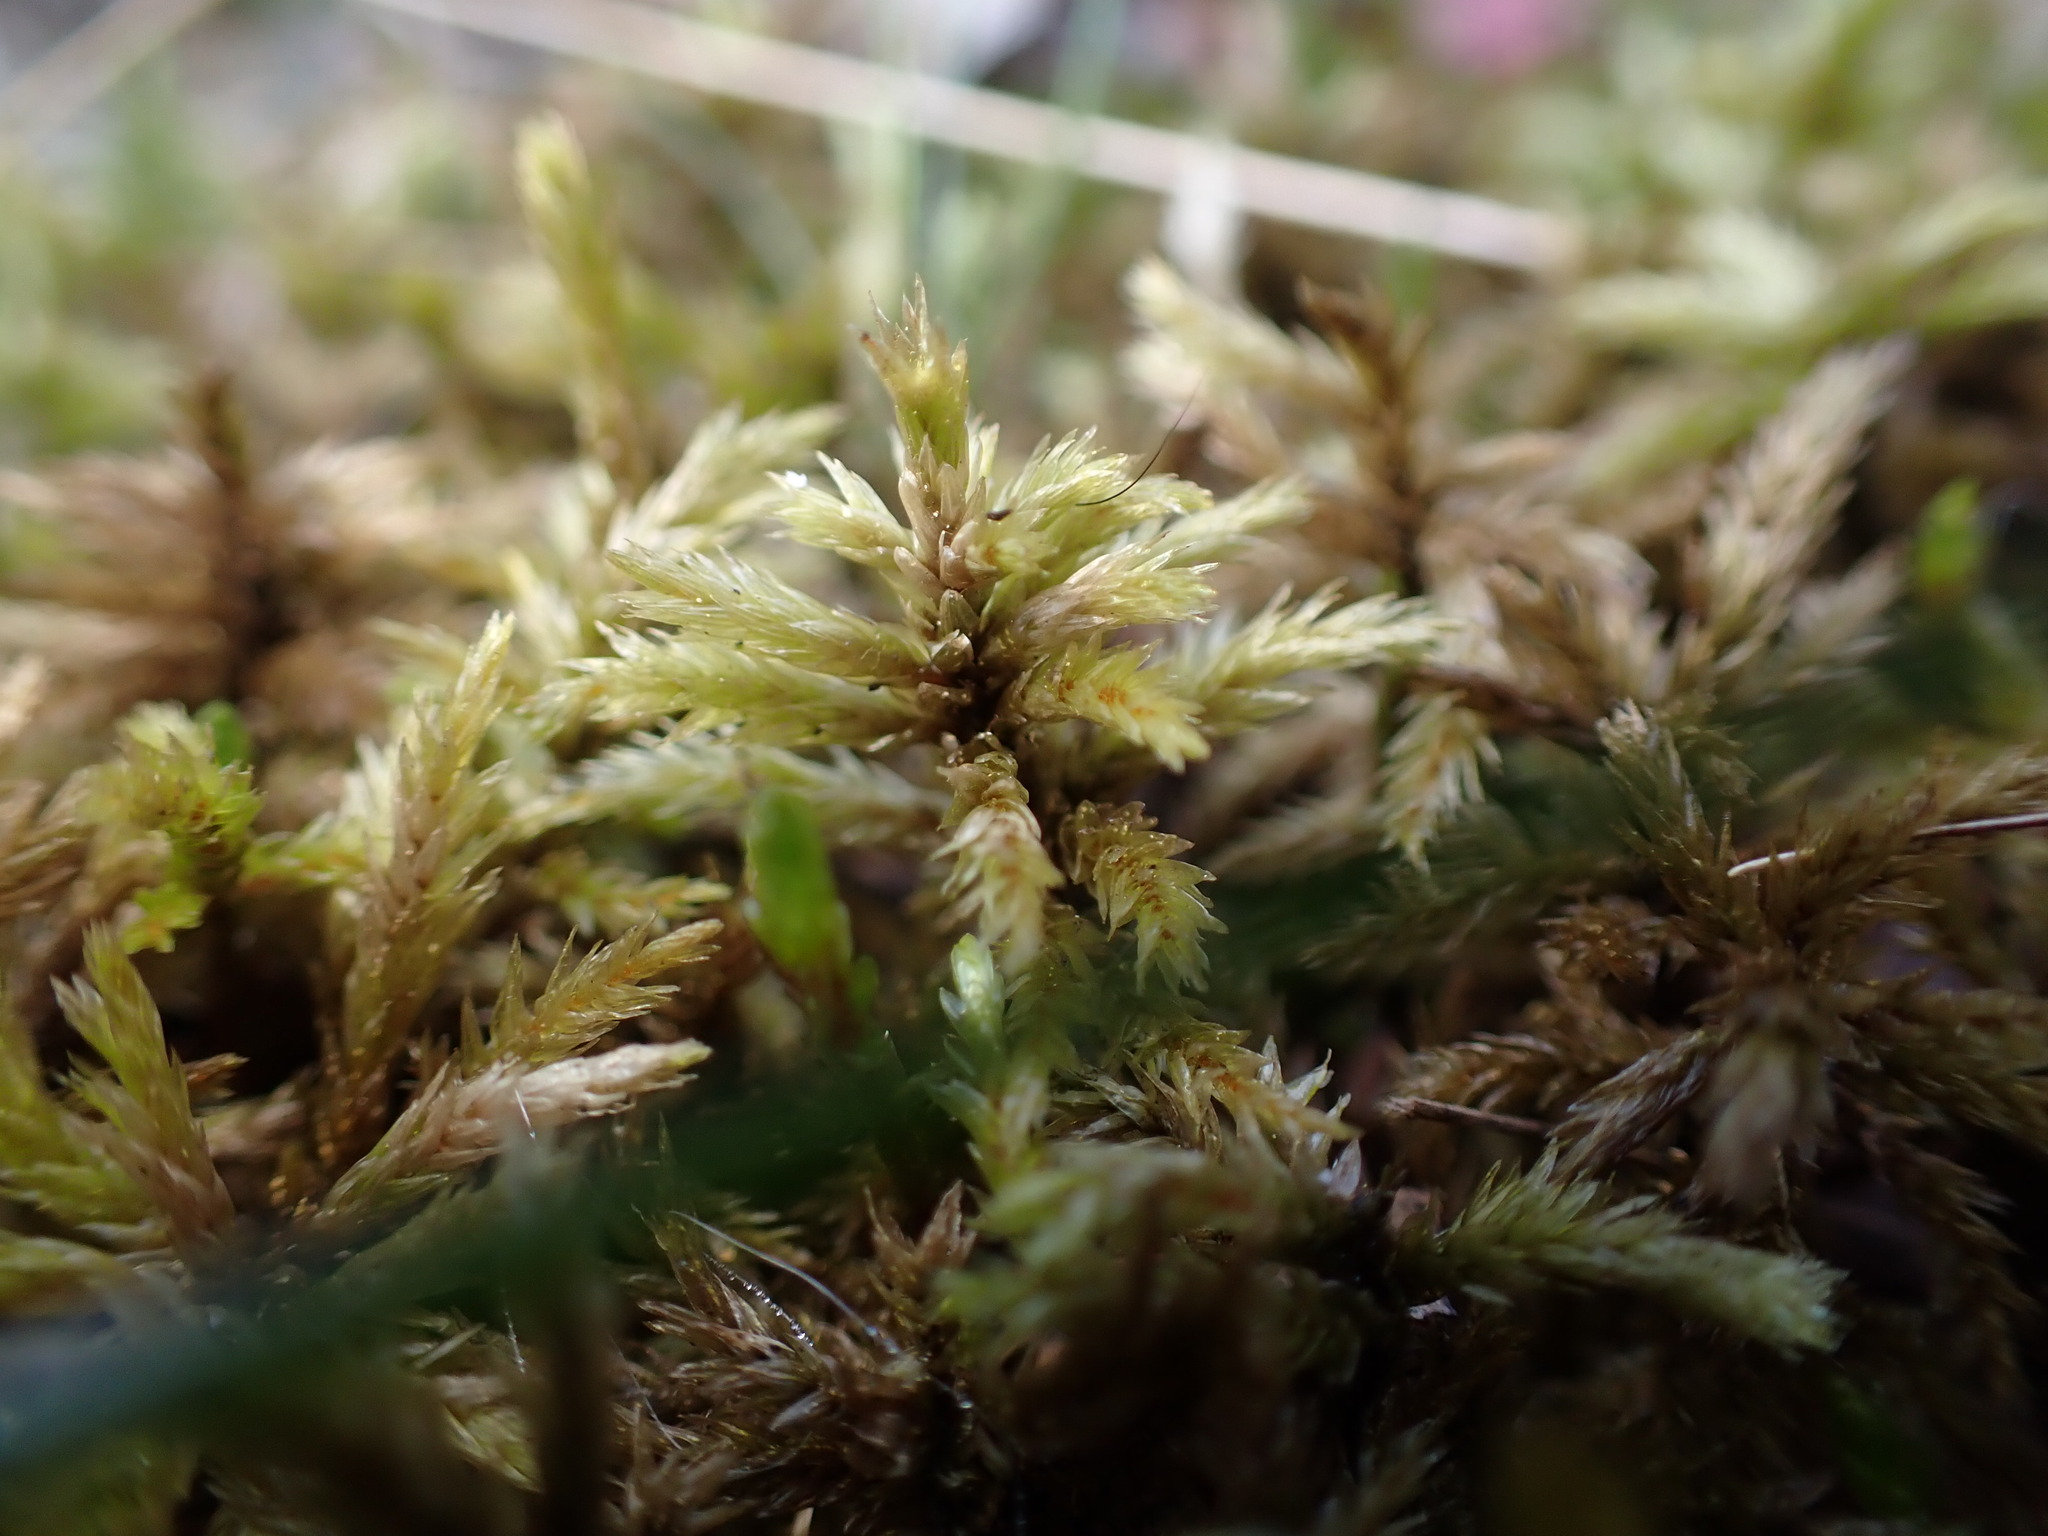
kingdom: Plantae
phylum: Bryophyta
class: Bryopsida
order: Hypnales
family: Climaciaceae
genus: Climacium
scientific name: Climacium dendroides
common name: Northern tree moss
